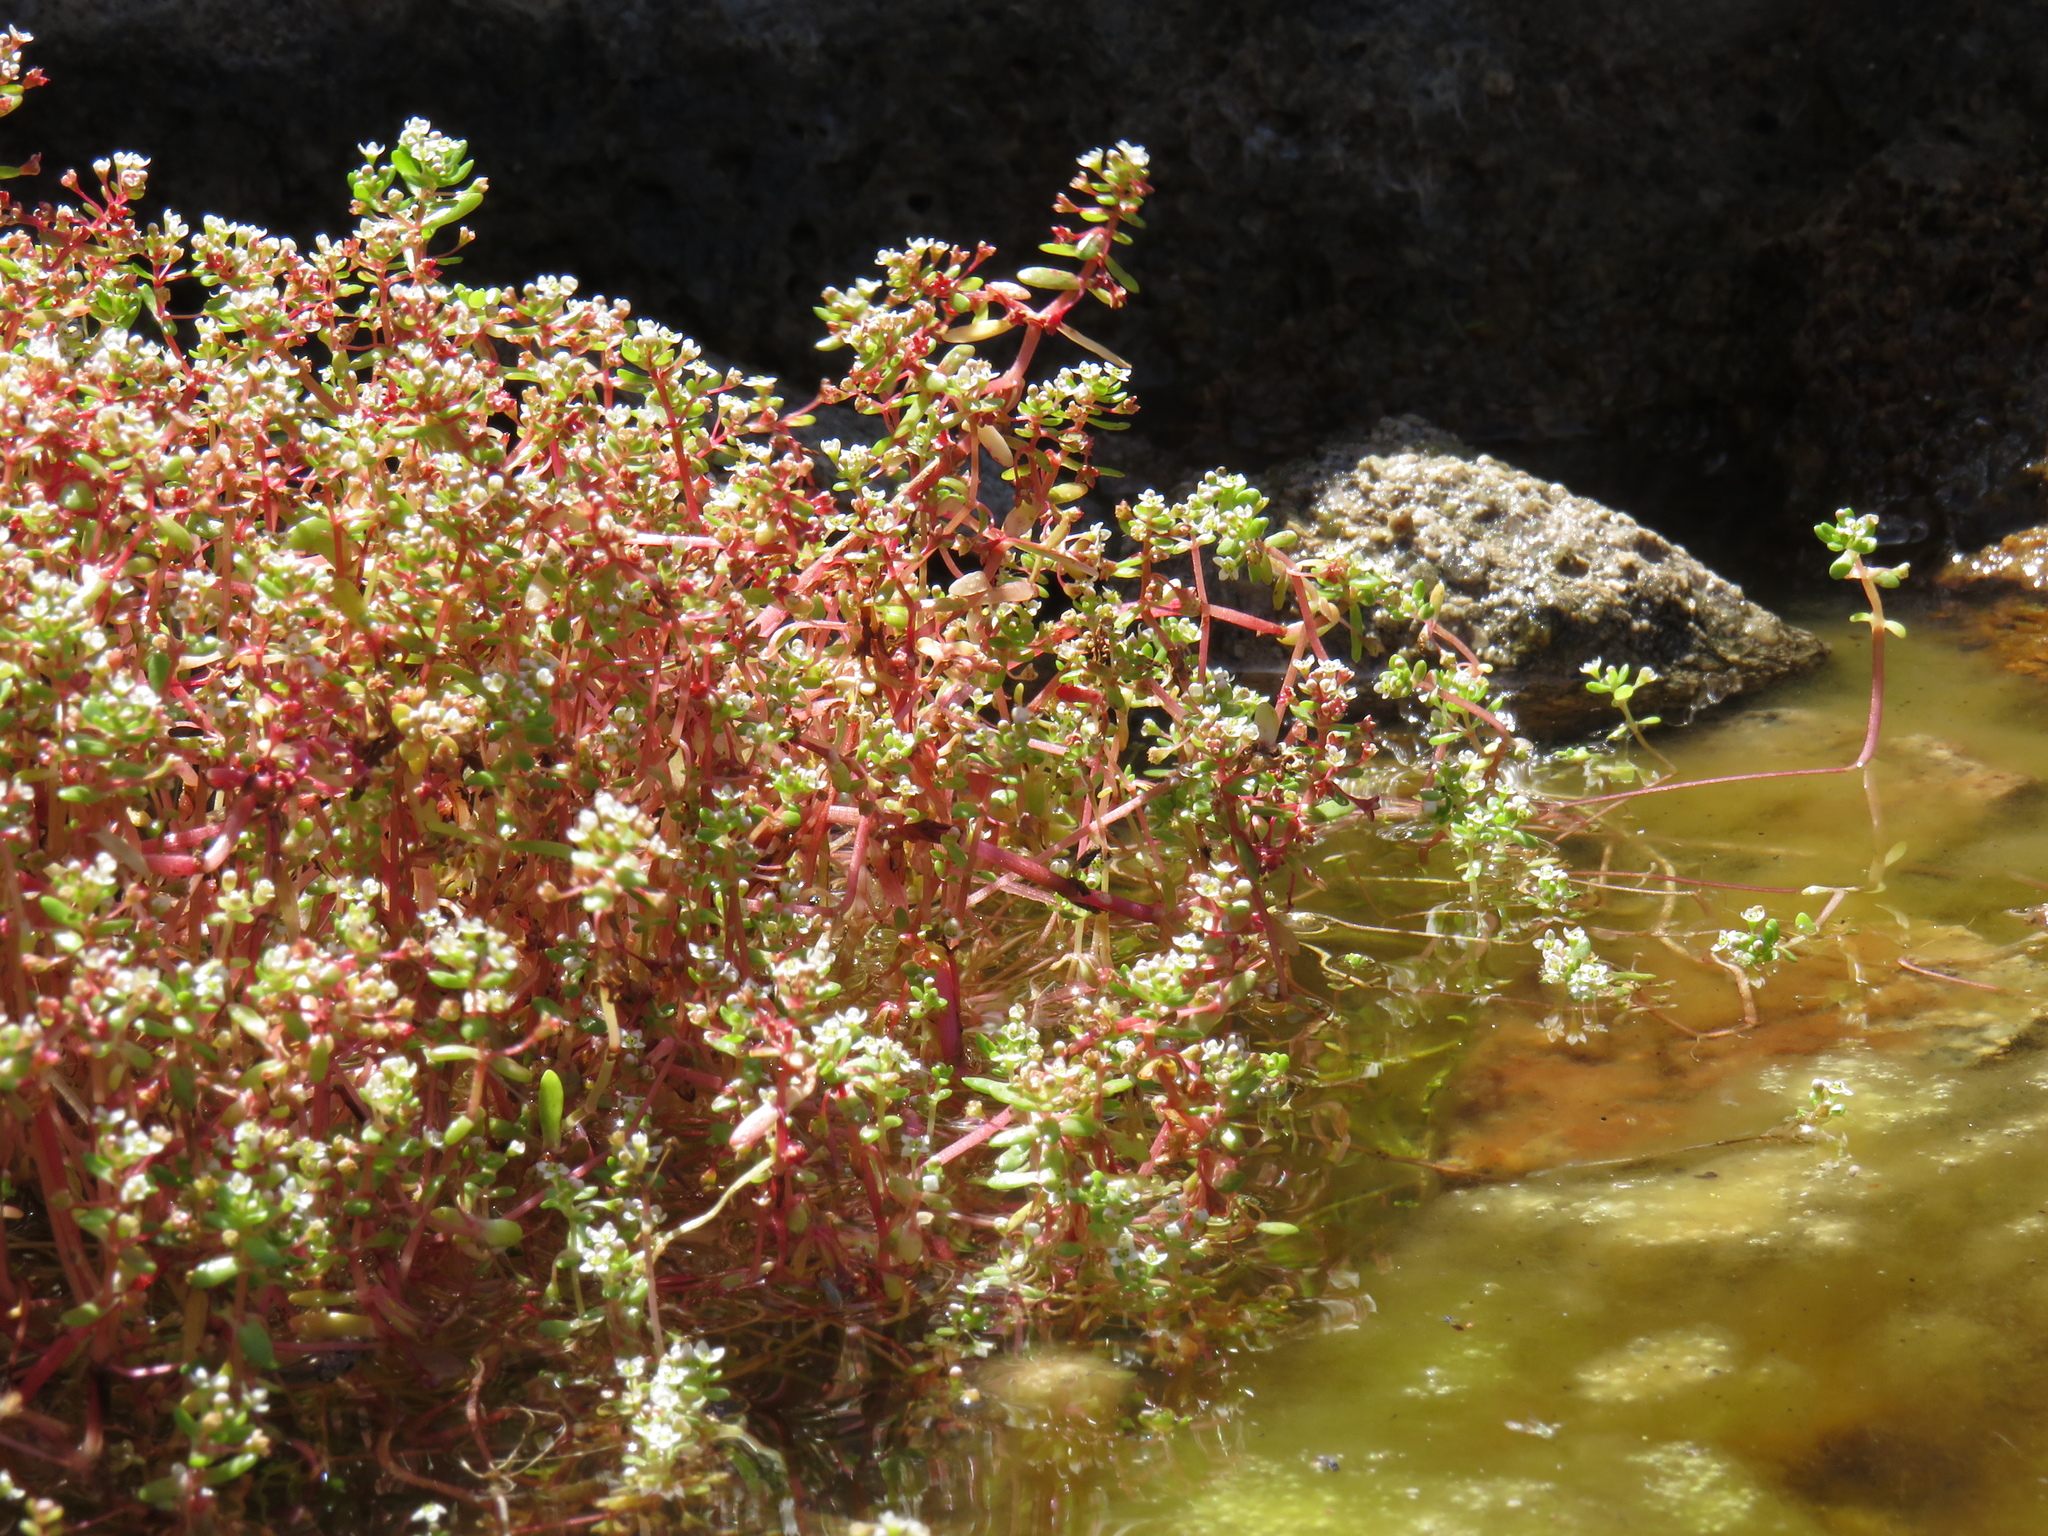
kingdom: Plantae
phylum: Tracheophyta
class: Magnoliopsida
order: Saxifragales
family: Crassulaceae
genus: Crassula
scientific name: Crassula natans
